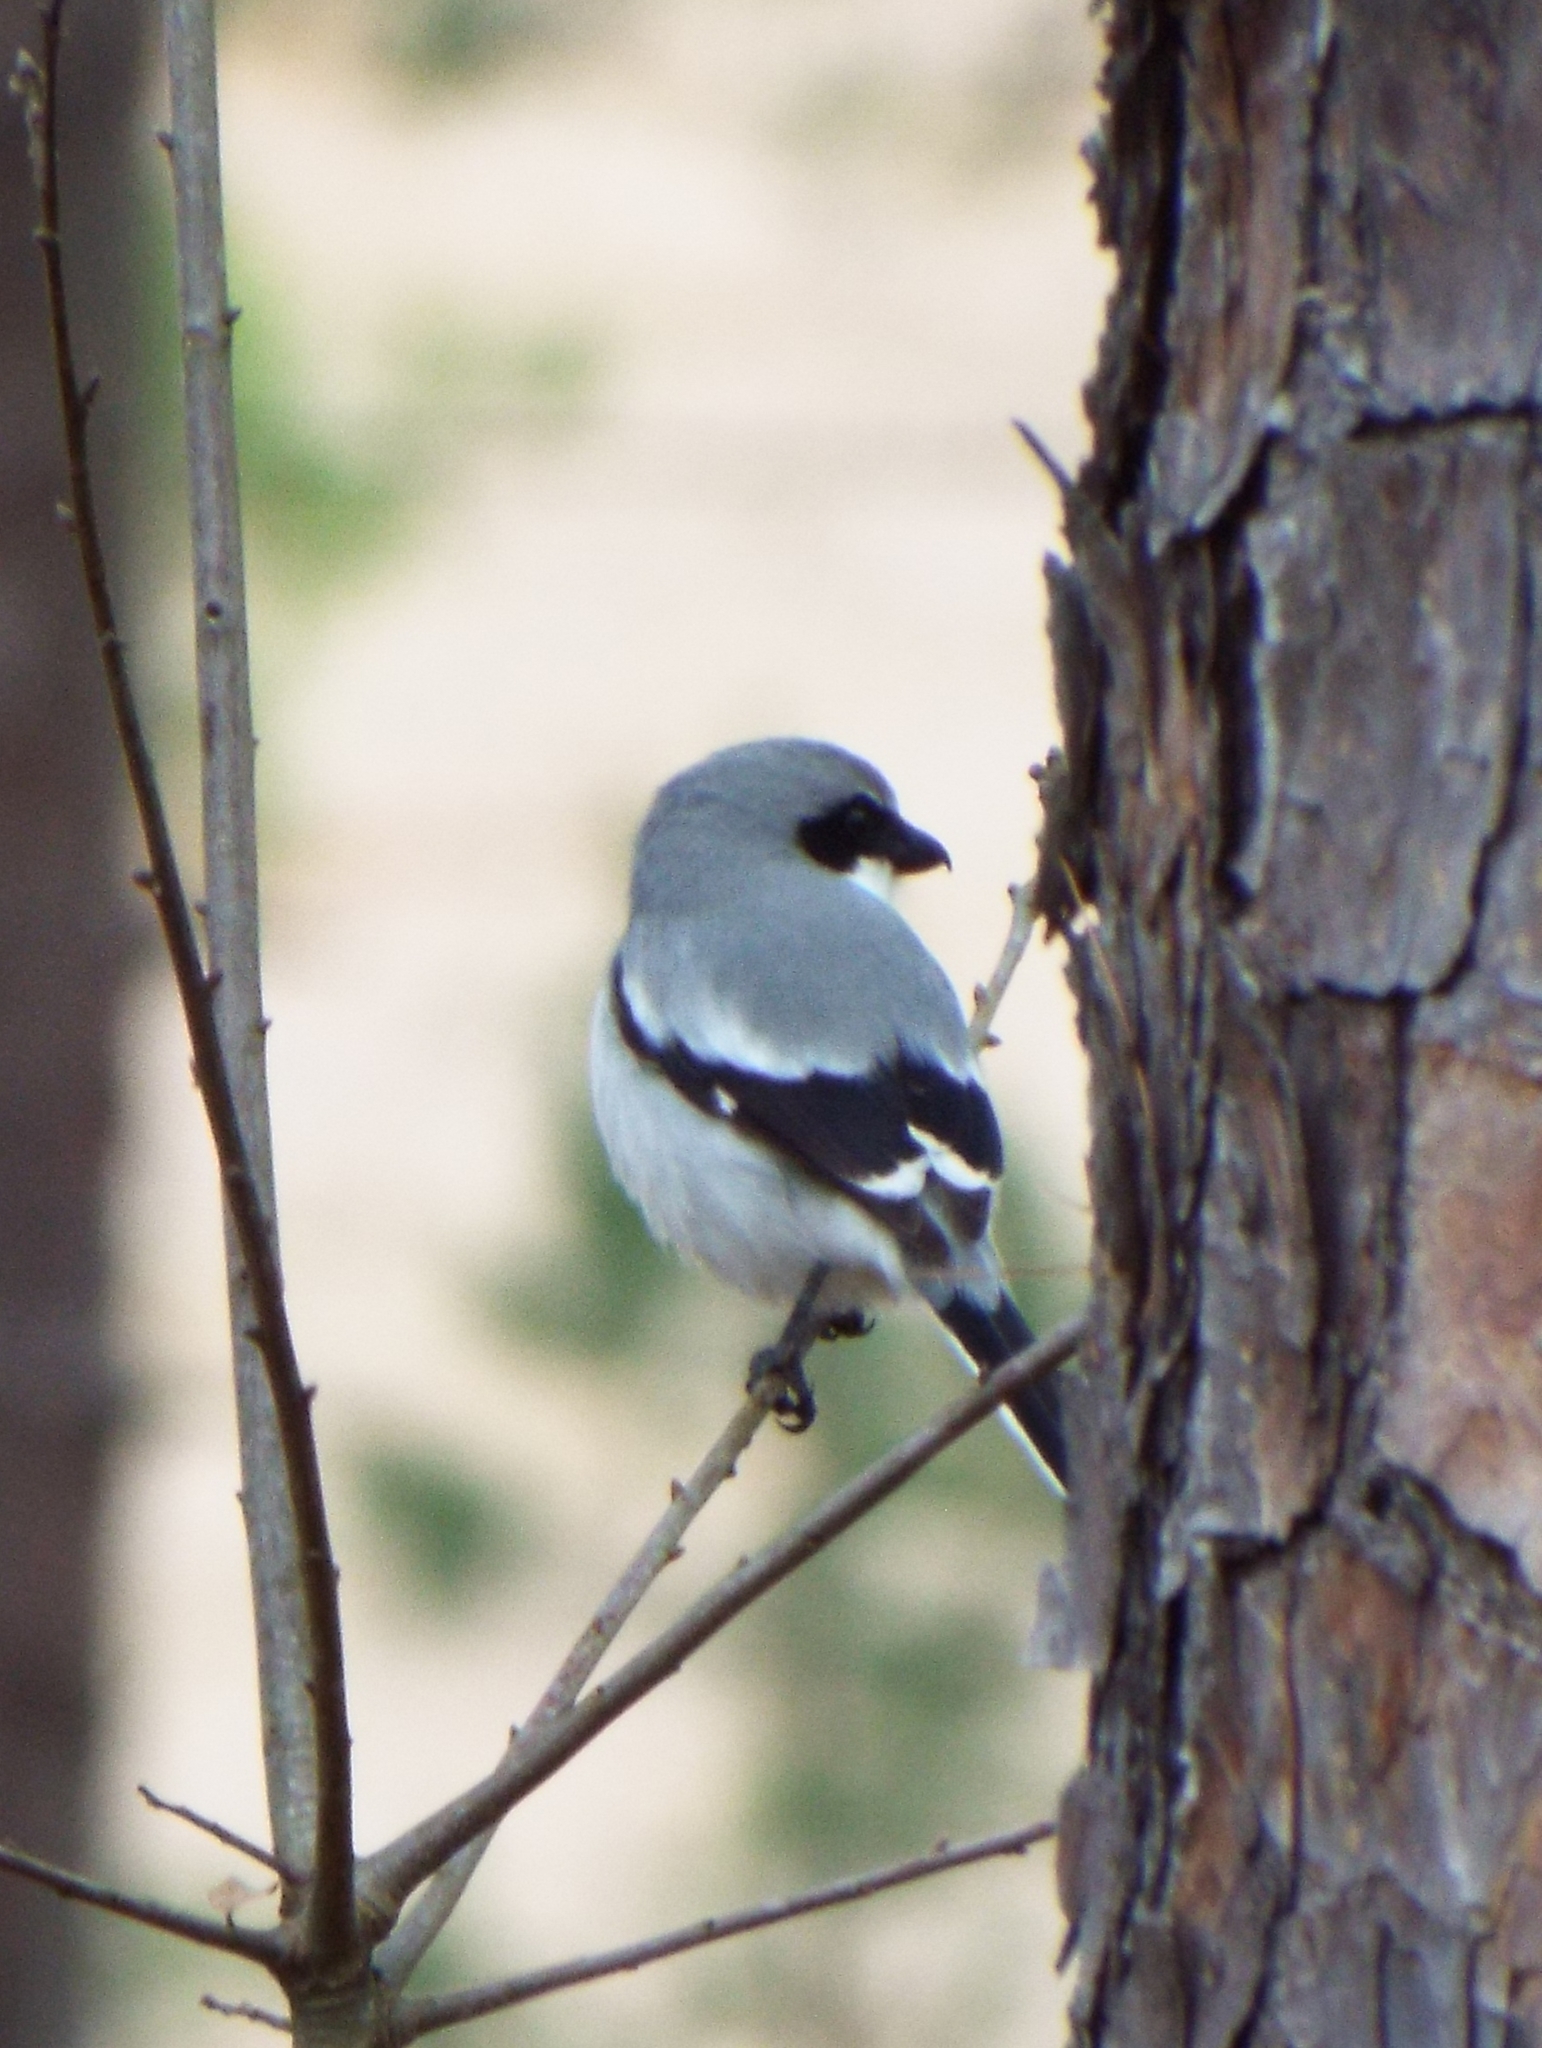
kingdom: Animalia
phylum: Chordata
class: Aves
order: Passeriformes
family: Laniidae
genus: Lanius
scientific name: Lanius ludovicianus
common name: Loggerhead shrike
